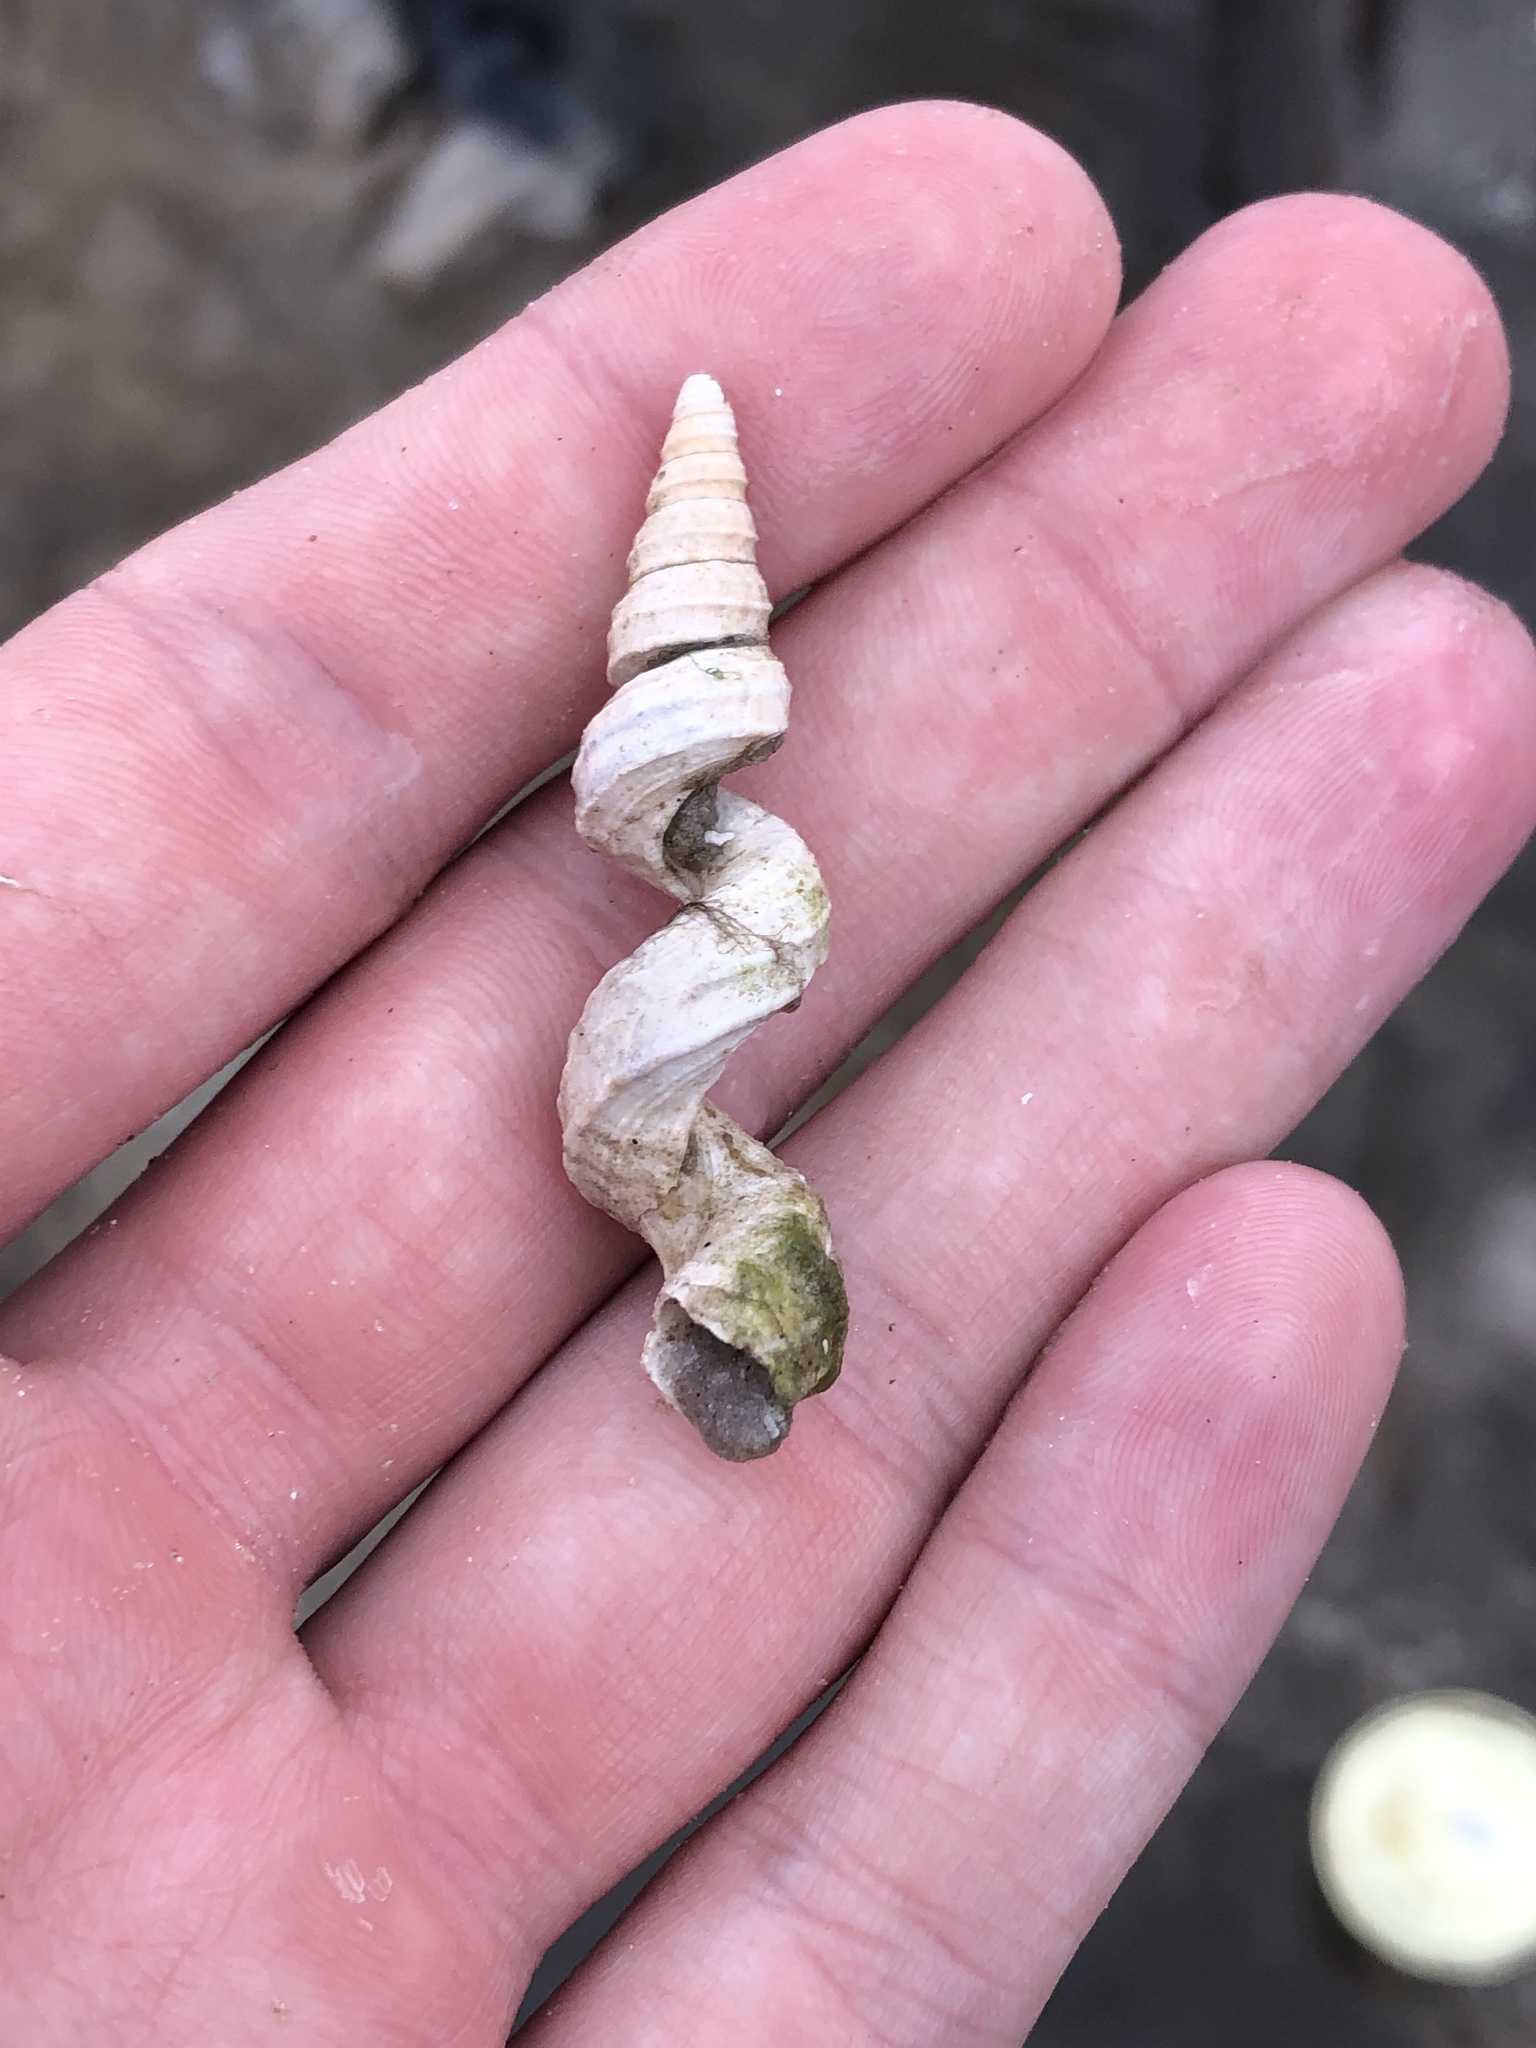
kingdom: Animalia
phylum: Mollusca
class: Gastropoda
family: Turritellidae
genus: Vermicularia
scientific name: Vermicularia fargoi
